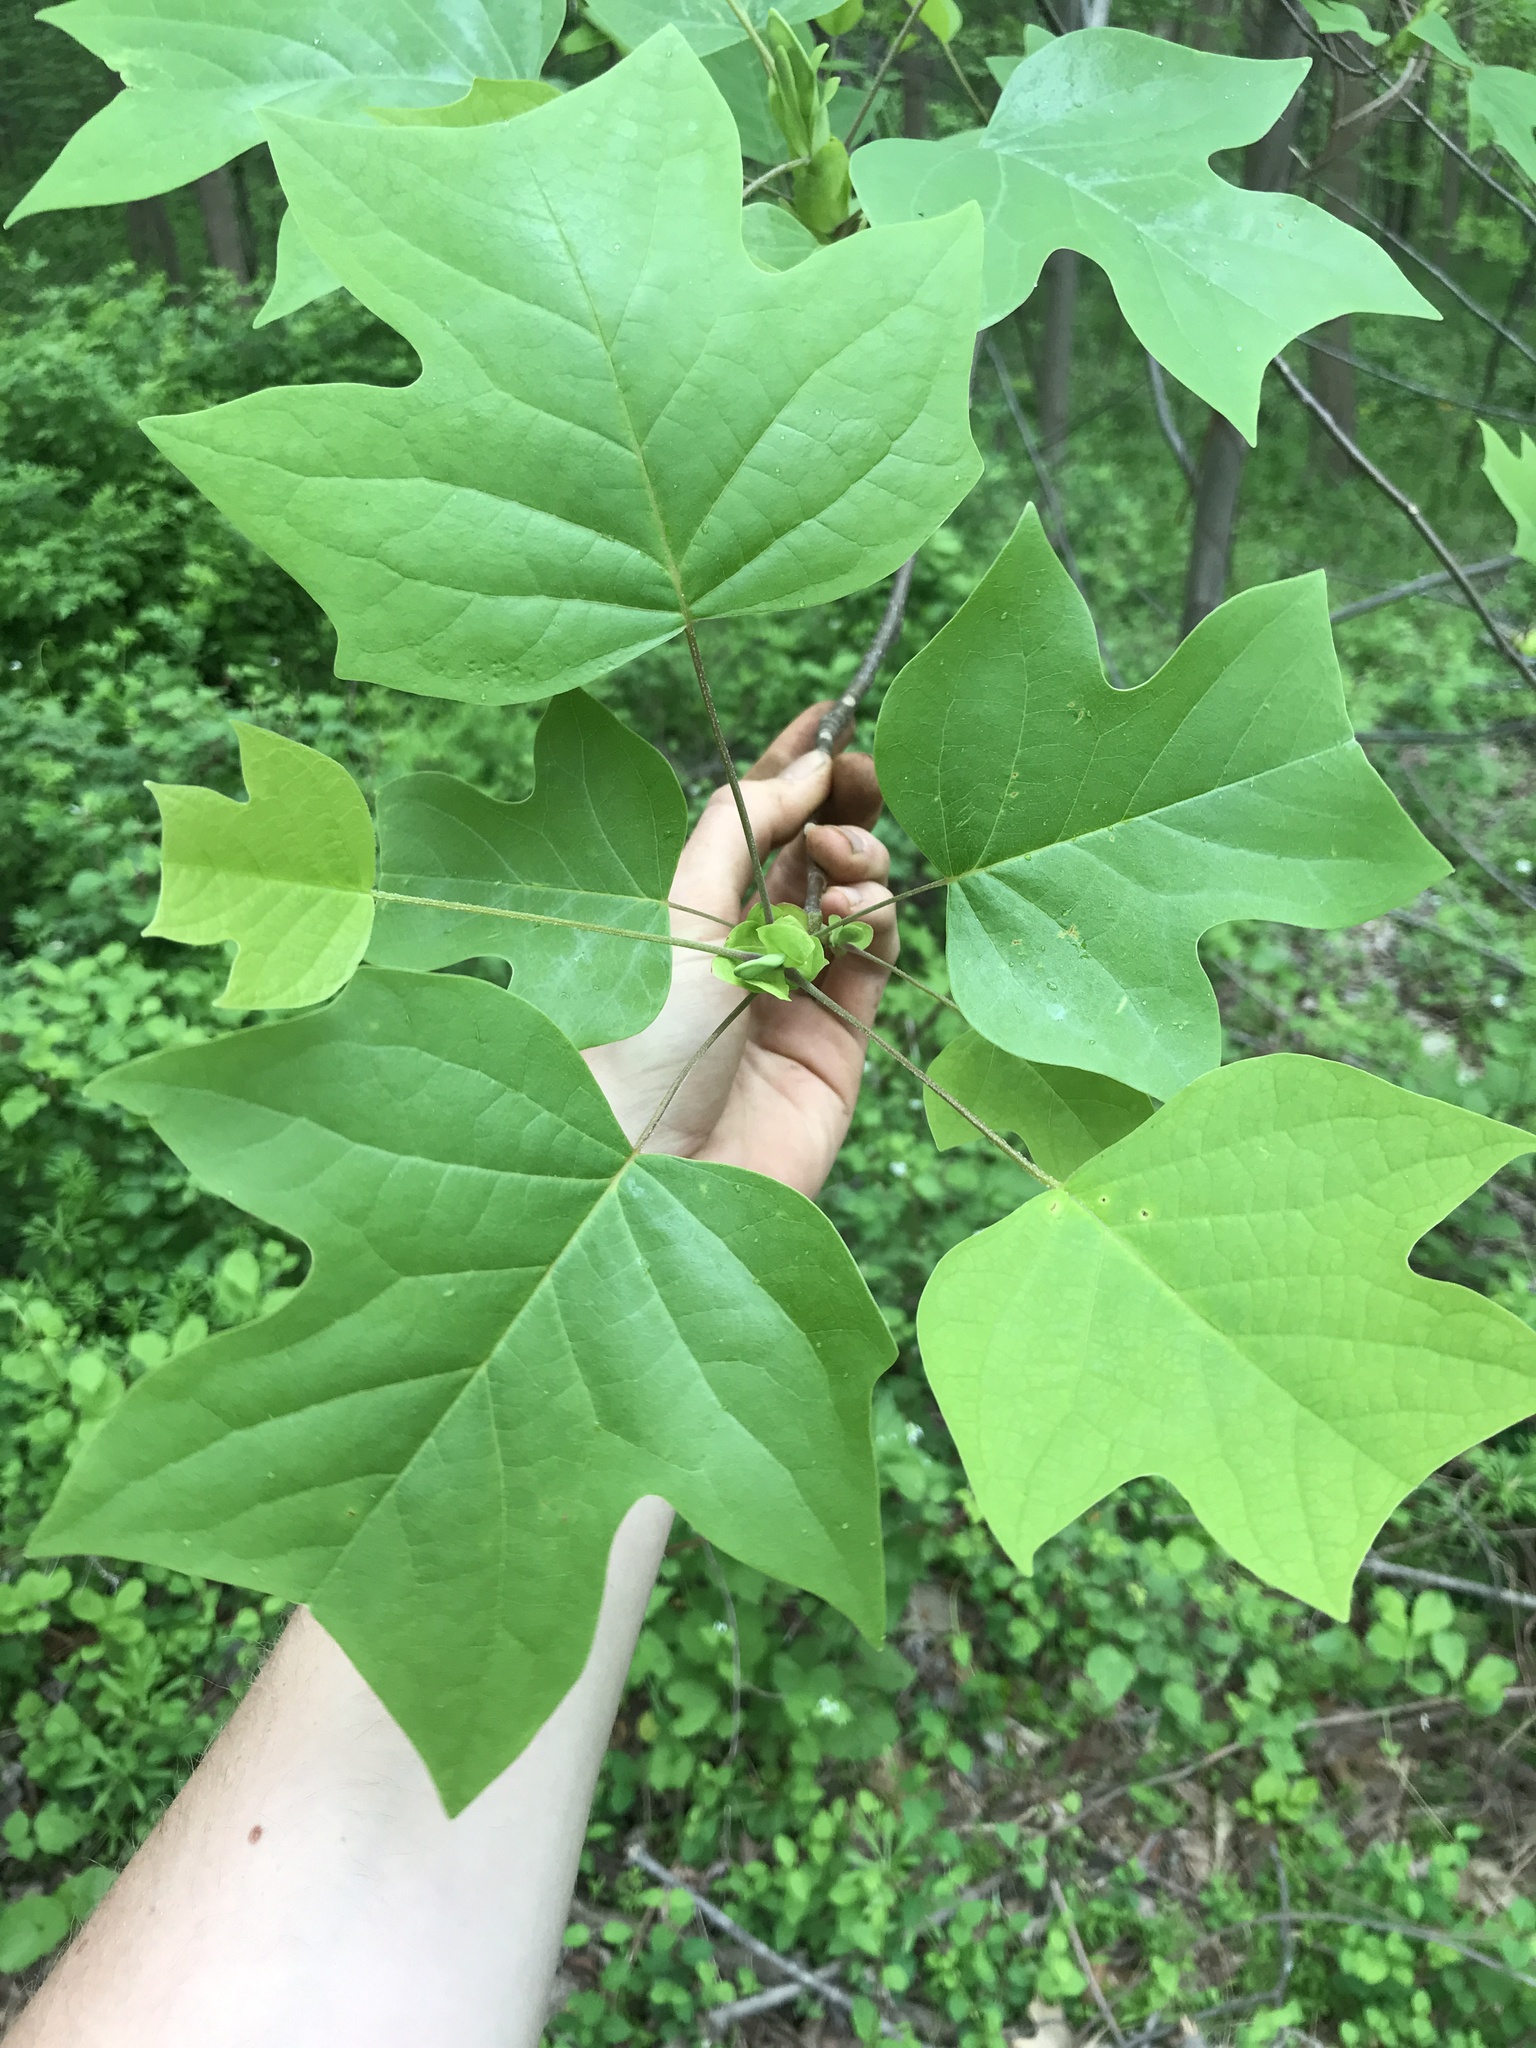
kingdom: Plantae
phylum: Tracheophyta
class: Magnoliopsida
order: Magnoliales
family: Magnoliaceae
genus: Liriodendron
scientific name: Liriodendron tulipifera
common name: Tulip tree
